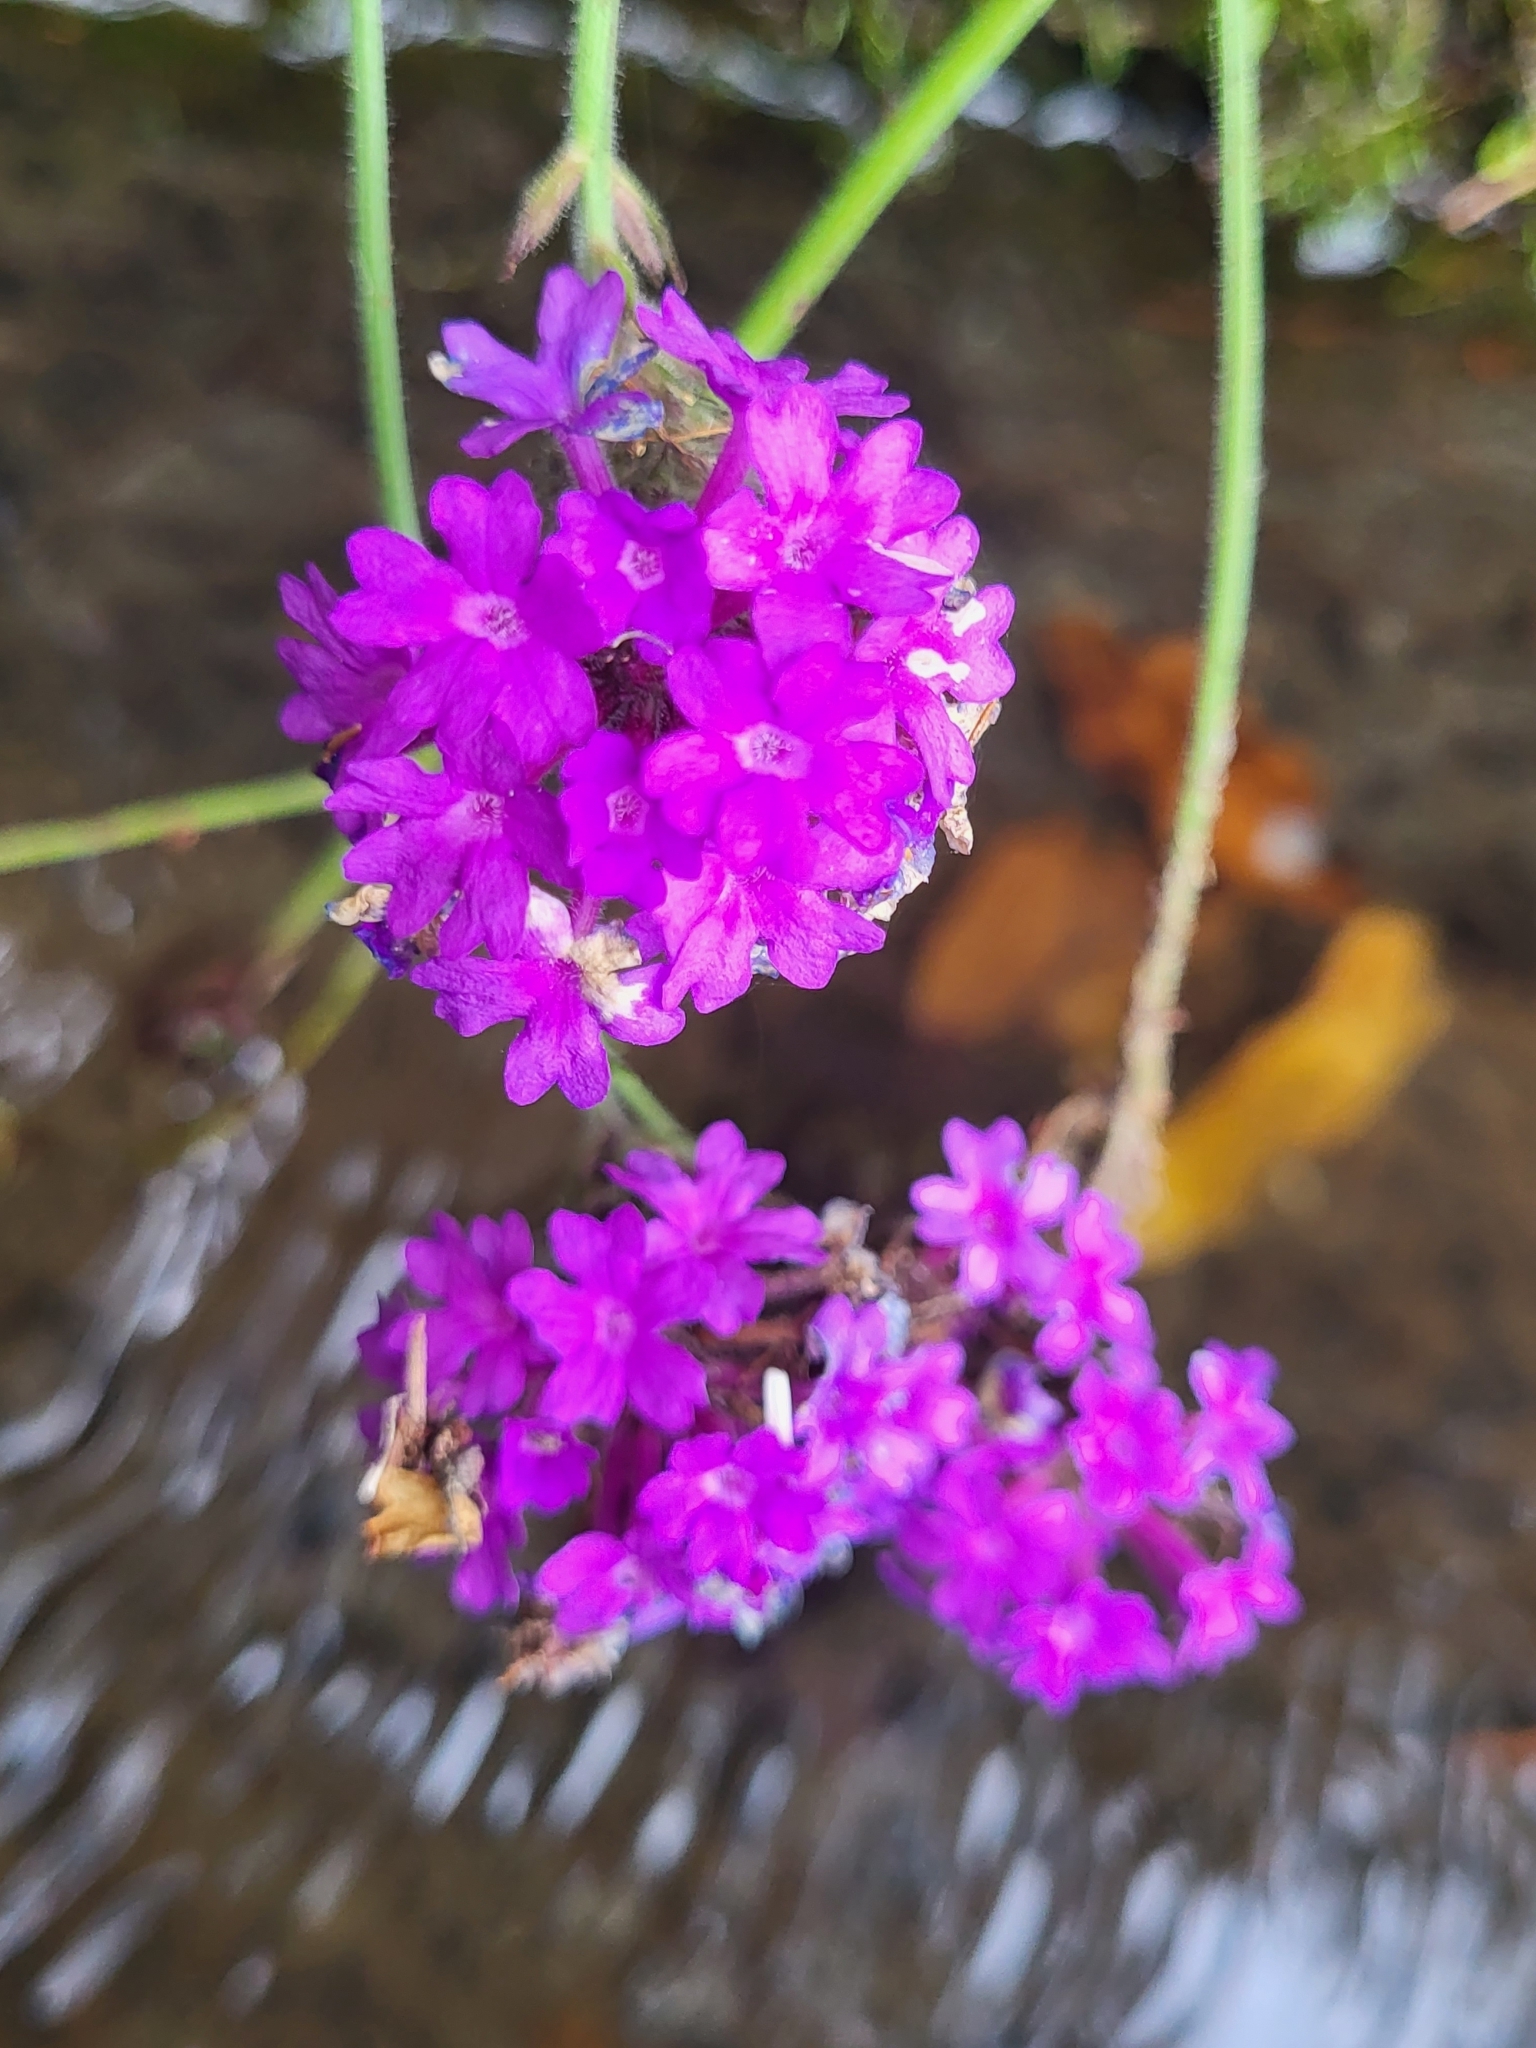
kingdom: Plantae
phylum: Tracheophyta
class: Magnoliopsida
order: Lamiales
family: Verbenaceae
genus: Verbena
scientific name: Verbena bonariensis
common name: Purpletop vervain
